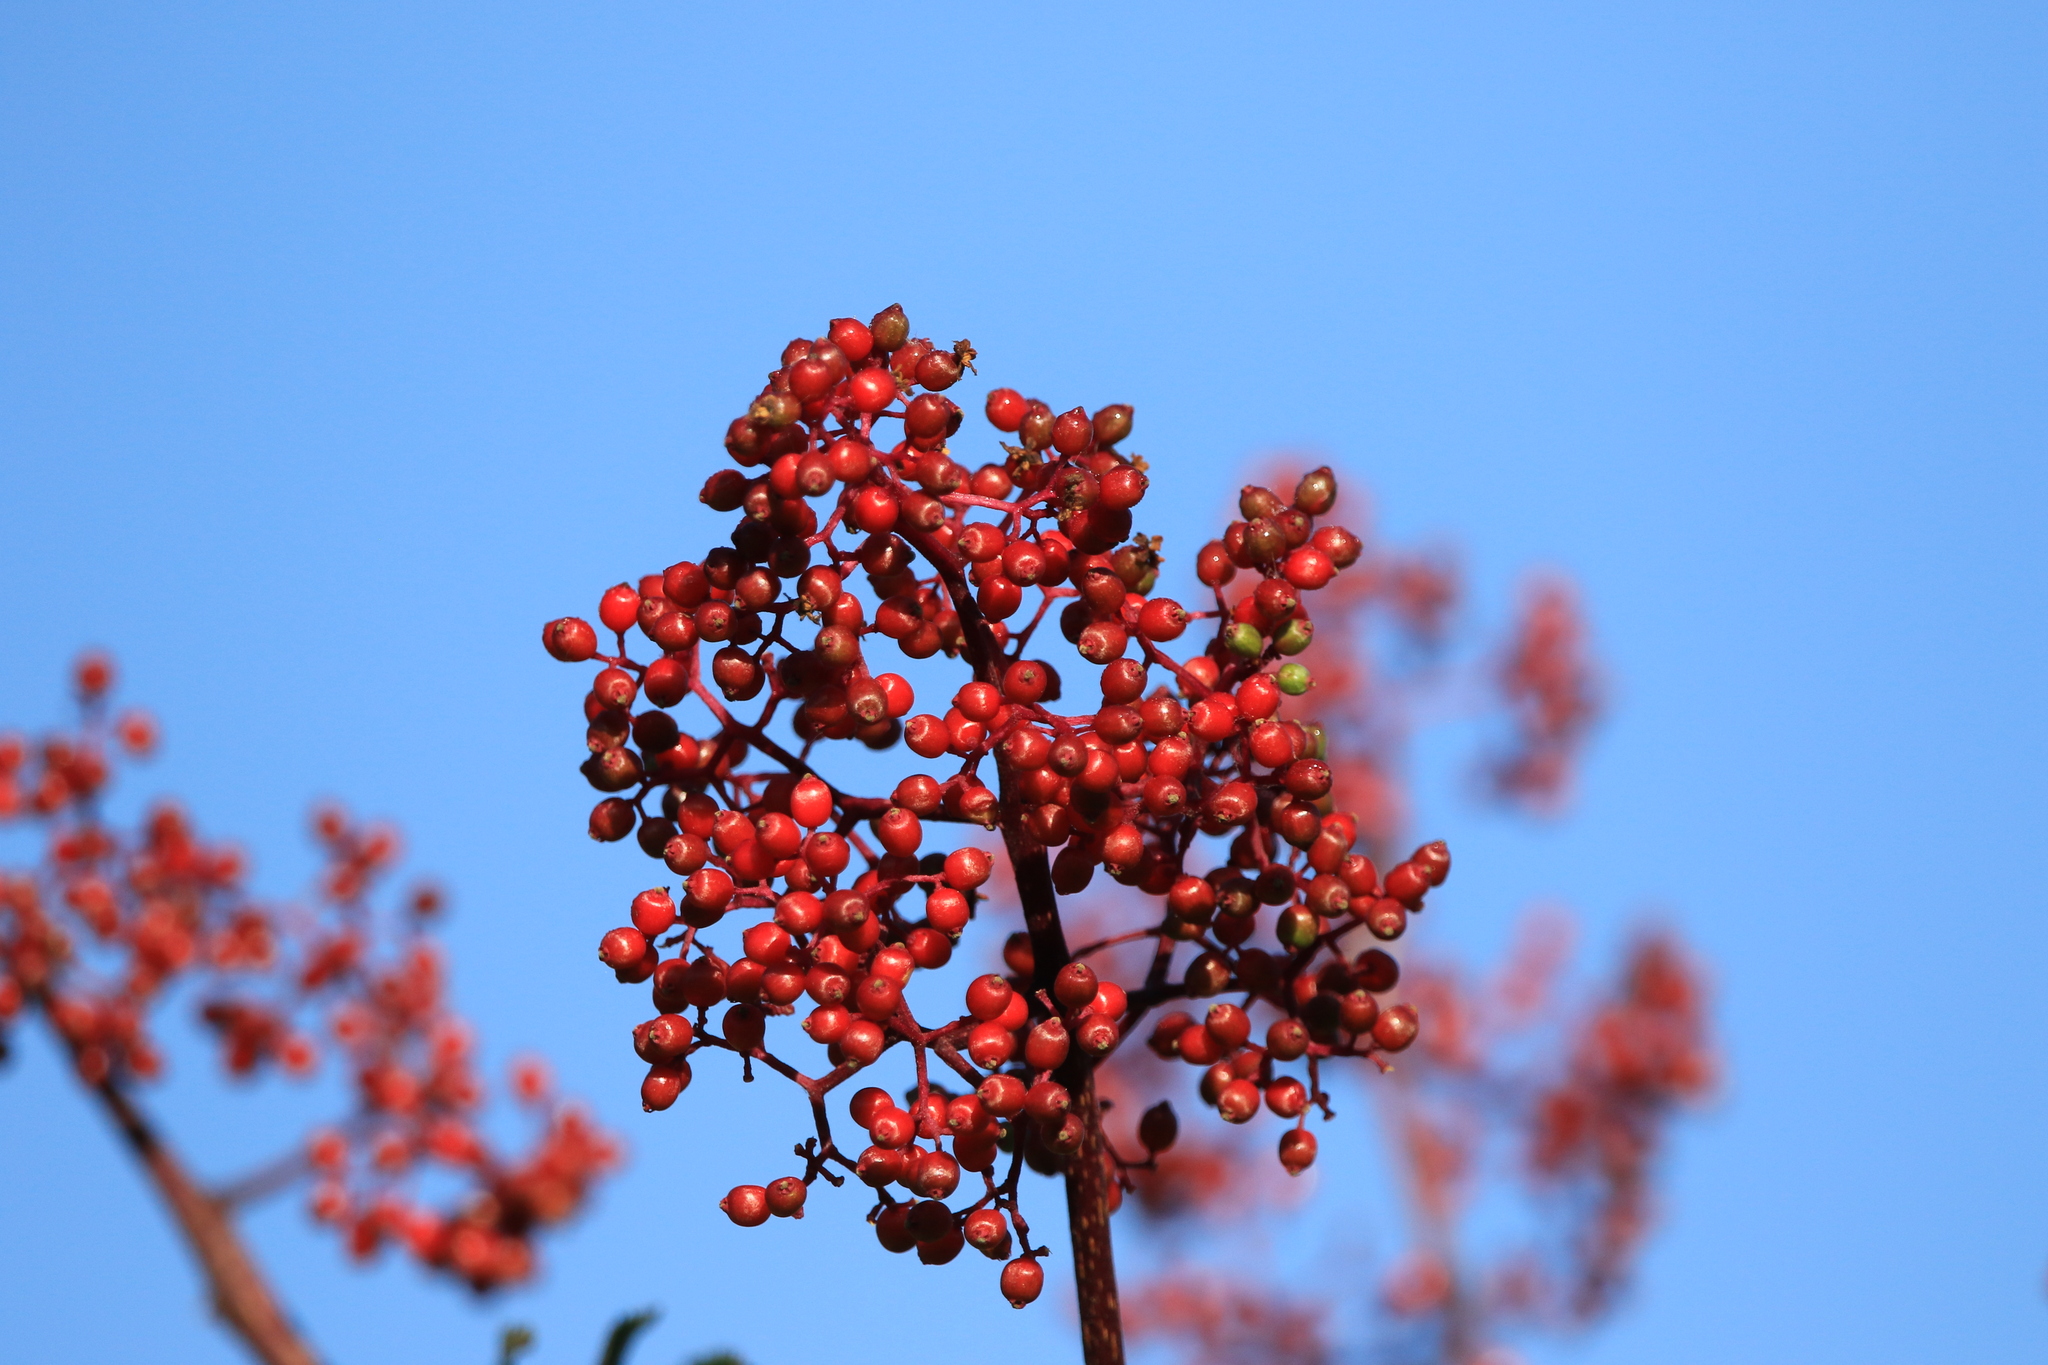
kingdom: Plantae
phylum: Tracheophyta
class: Magnoliopsida
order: Dipsacales
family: Viburnaceae
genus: Sambucus
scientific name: Sambucus racemosa
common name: Red-berried elder
